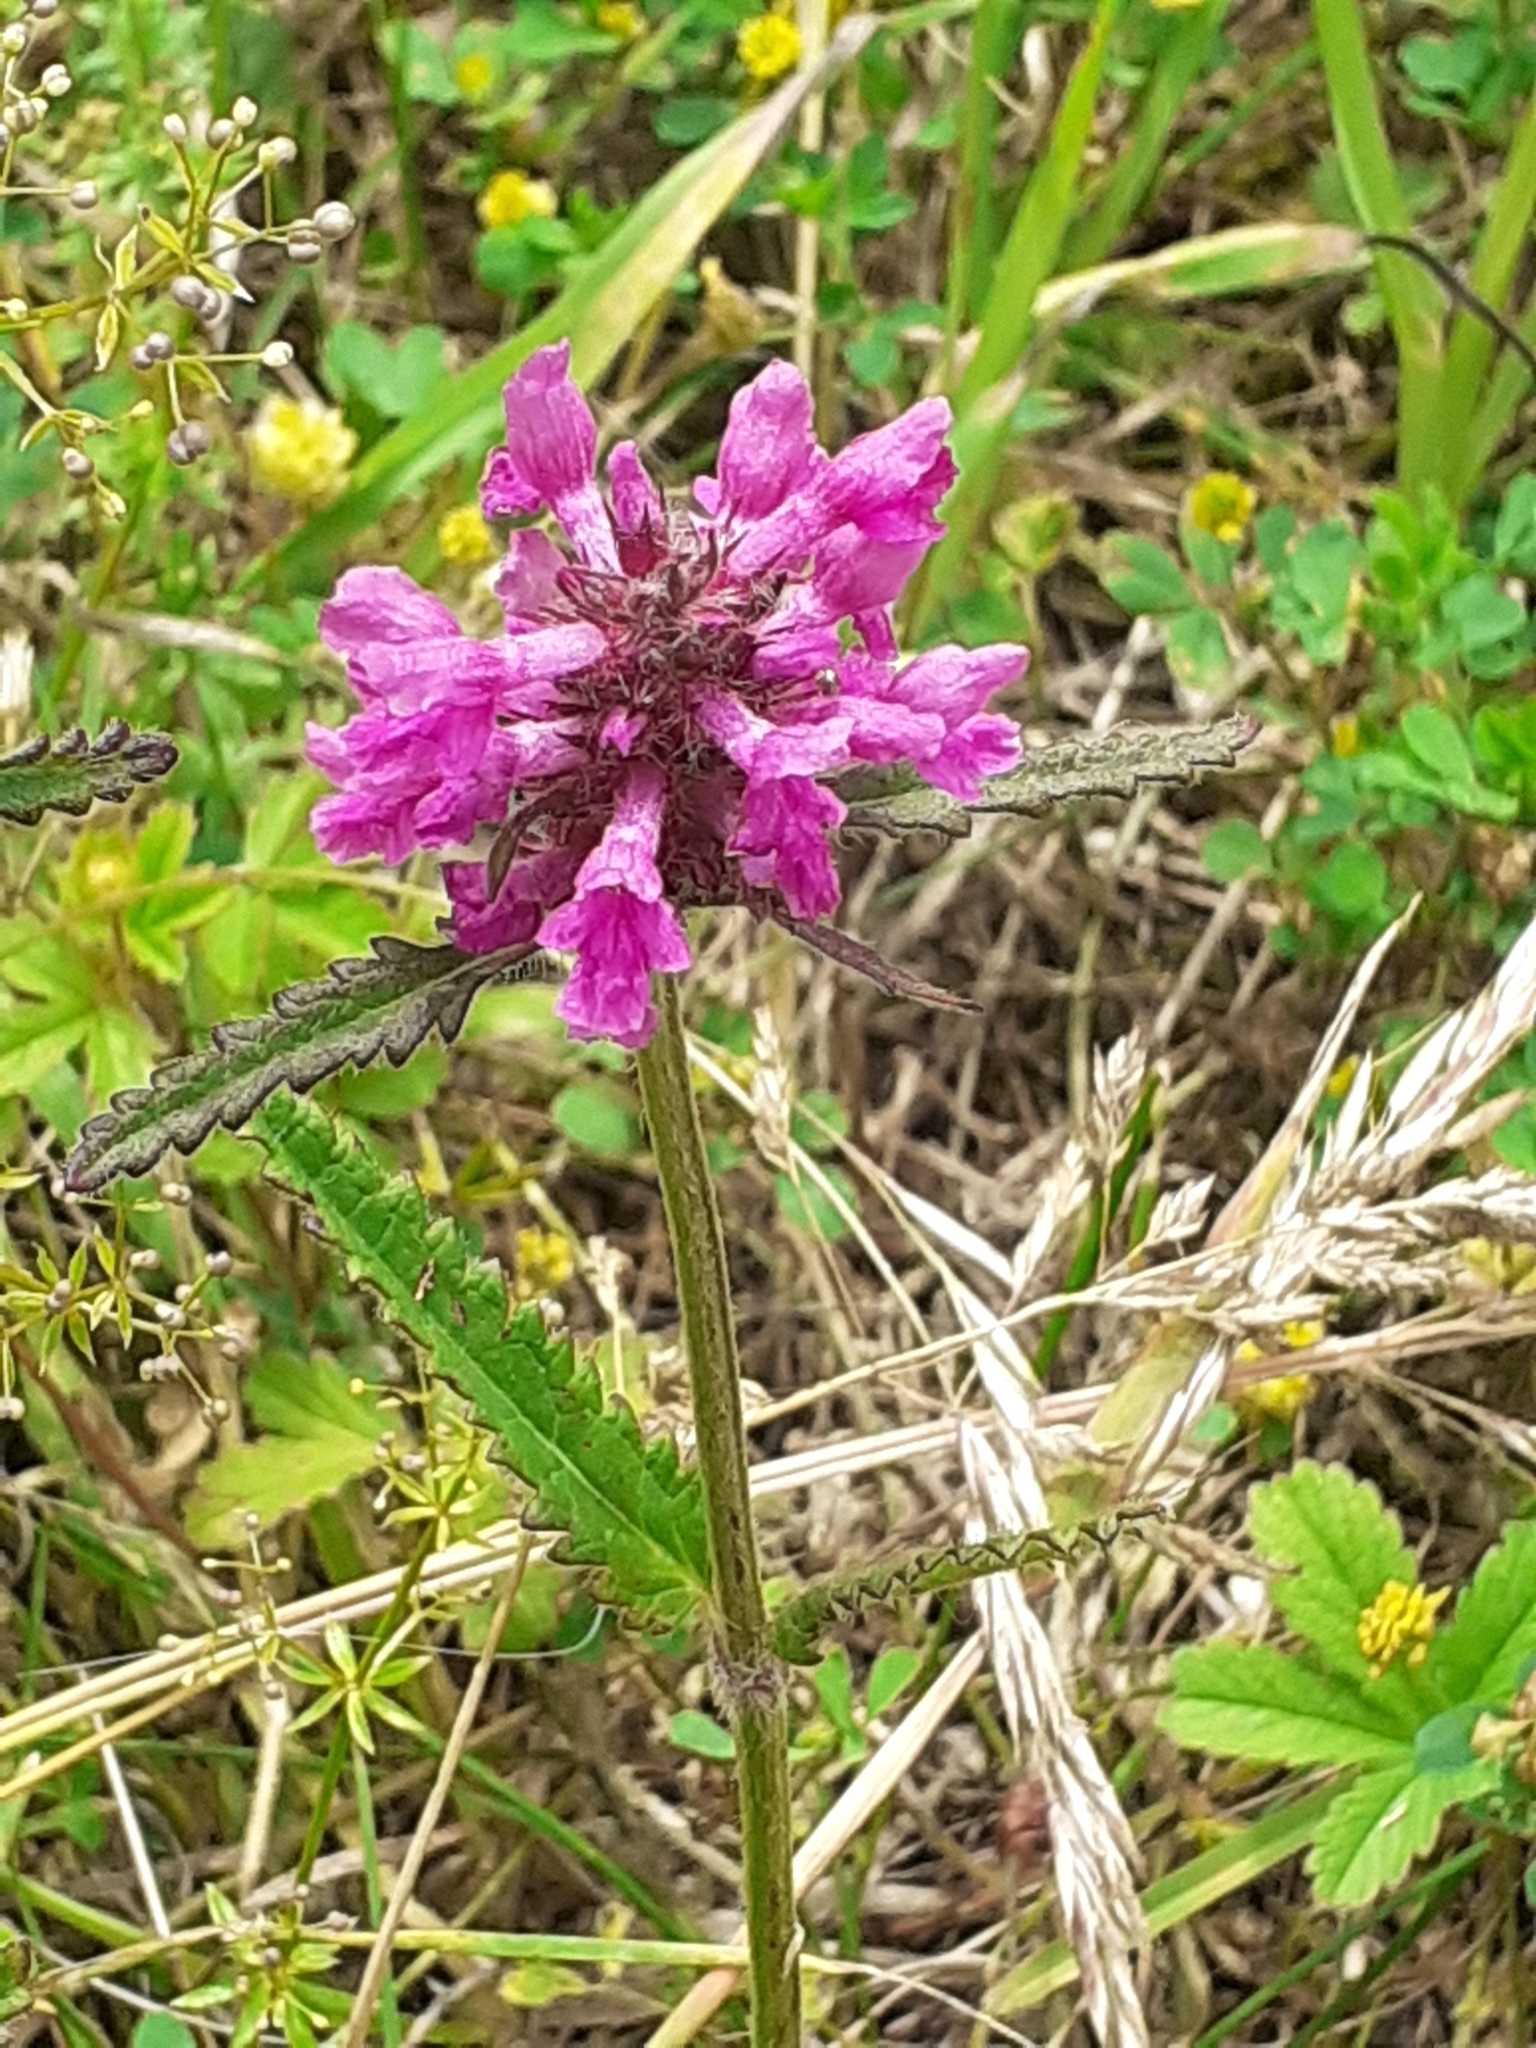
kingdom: Plantae
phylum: Tracheophyta
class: Magnoliopsida
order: Lamiales
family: Lamiaceae
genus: Betonica
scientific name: Betonica officinalis
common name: Bishop's-wort
